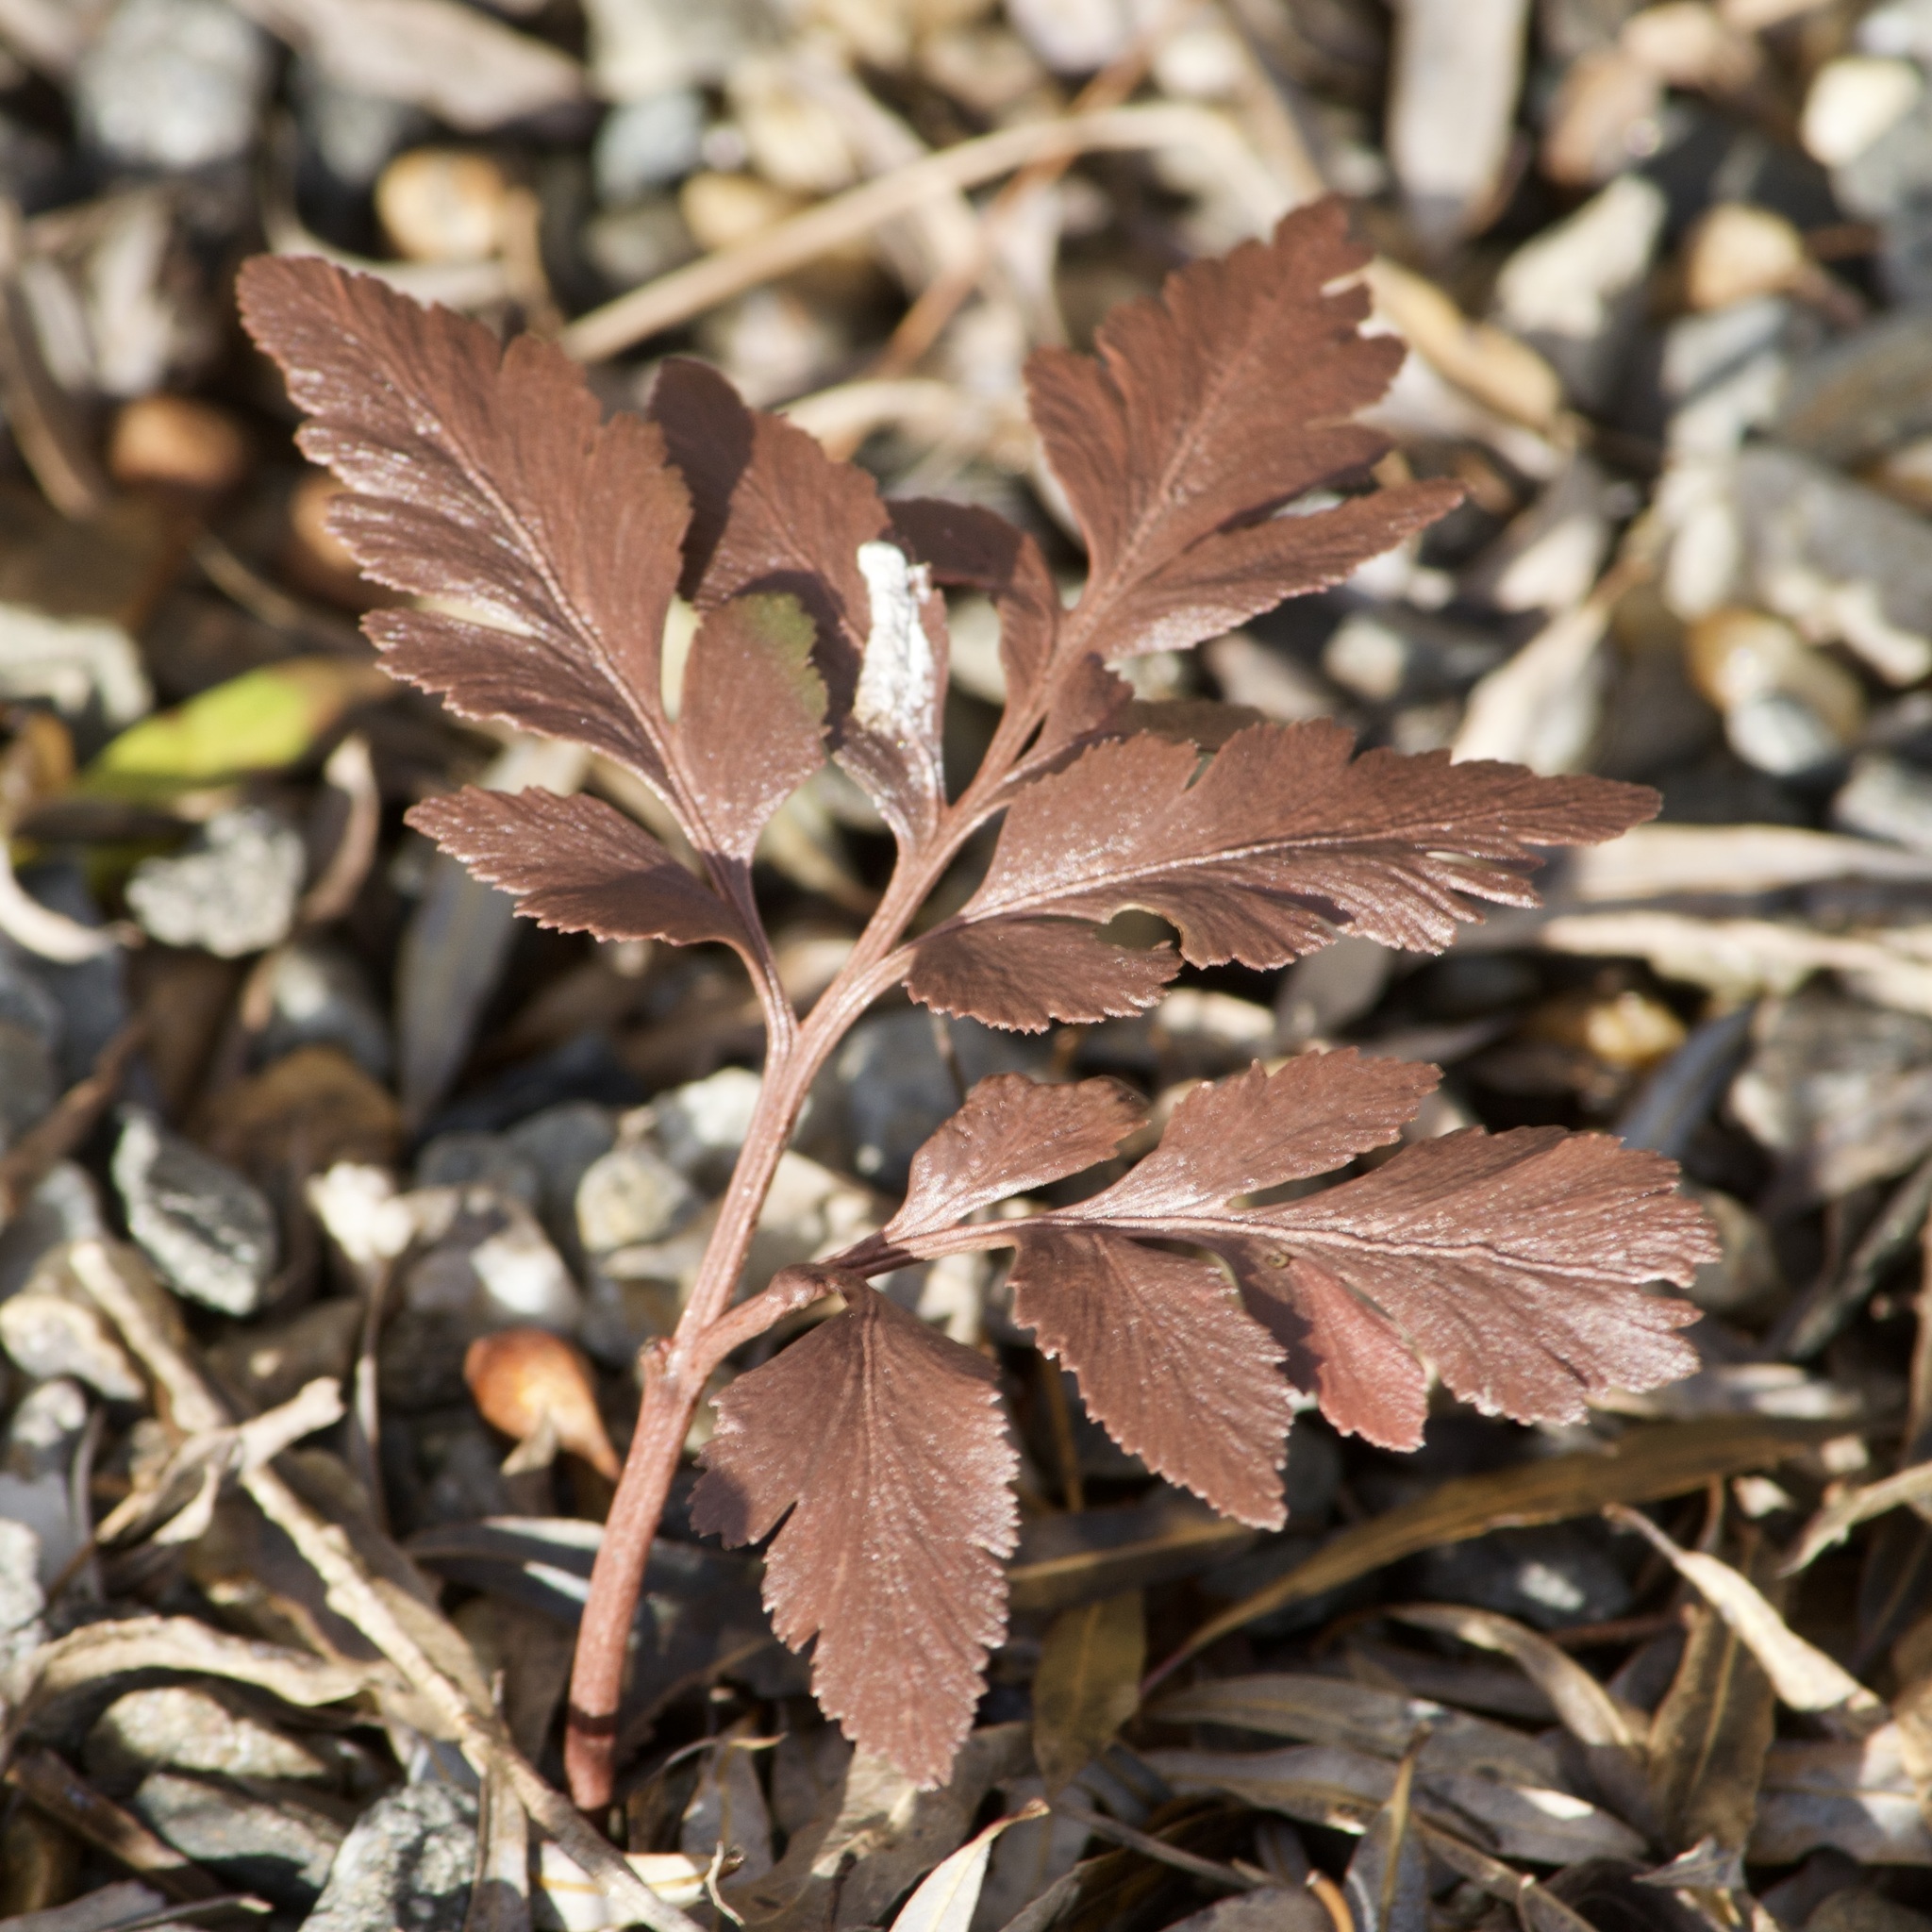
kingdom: Plantae
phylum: Tracheophyta
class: Polypodiopsida
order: Ophioglossales
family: Ophioglossaceae
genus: Sceptridium
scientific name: Sceptridium dissectum
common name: Cut-leaved grapefern
